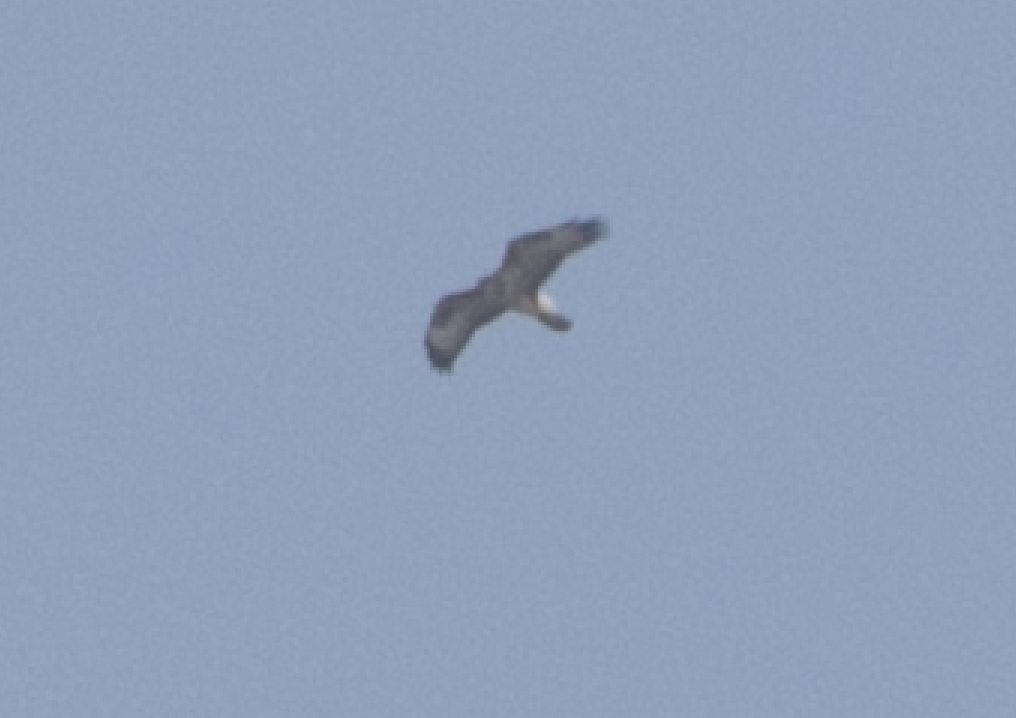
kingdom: Animalia
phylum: Chordata
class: Aves
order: Accipitriformes
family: Accipitridae
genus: Buteo
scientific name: Buteo buteo
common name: Common buzzard
